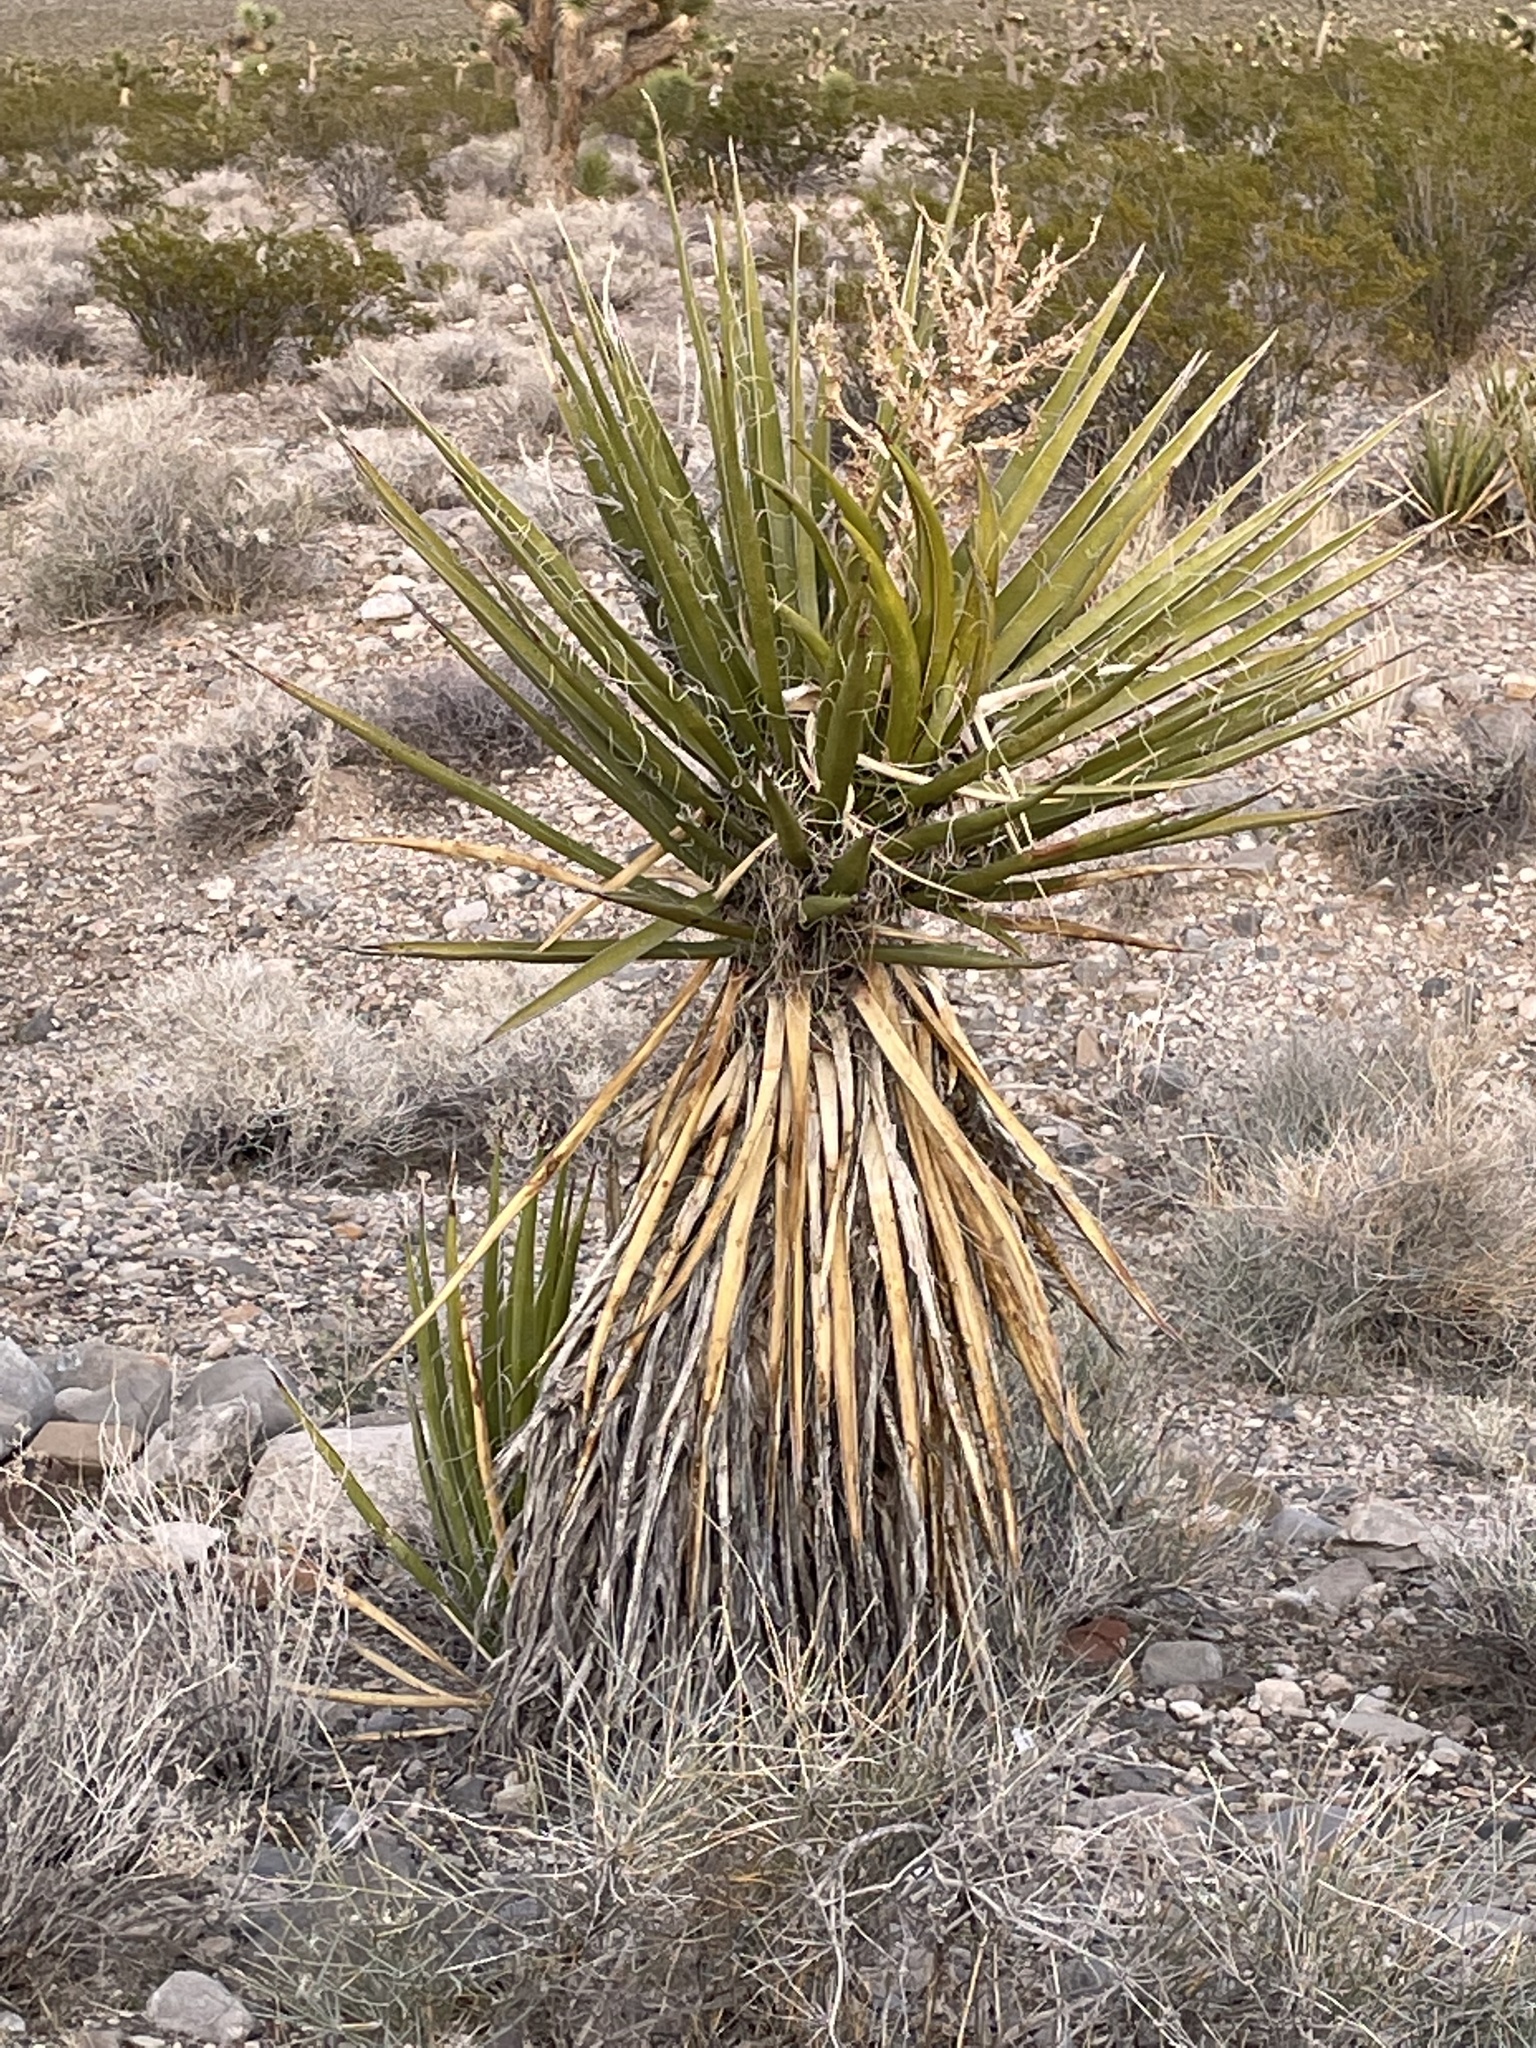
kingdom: Plantae
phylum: Tracheophyta
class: Liliopsida
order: Asparagales
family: Asparagaceae
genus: Yucca
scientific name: Yucca schidigera
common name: Mojave yucca
